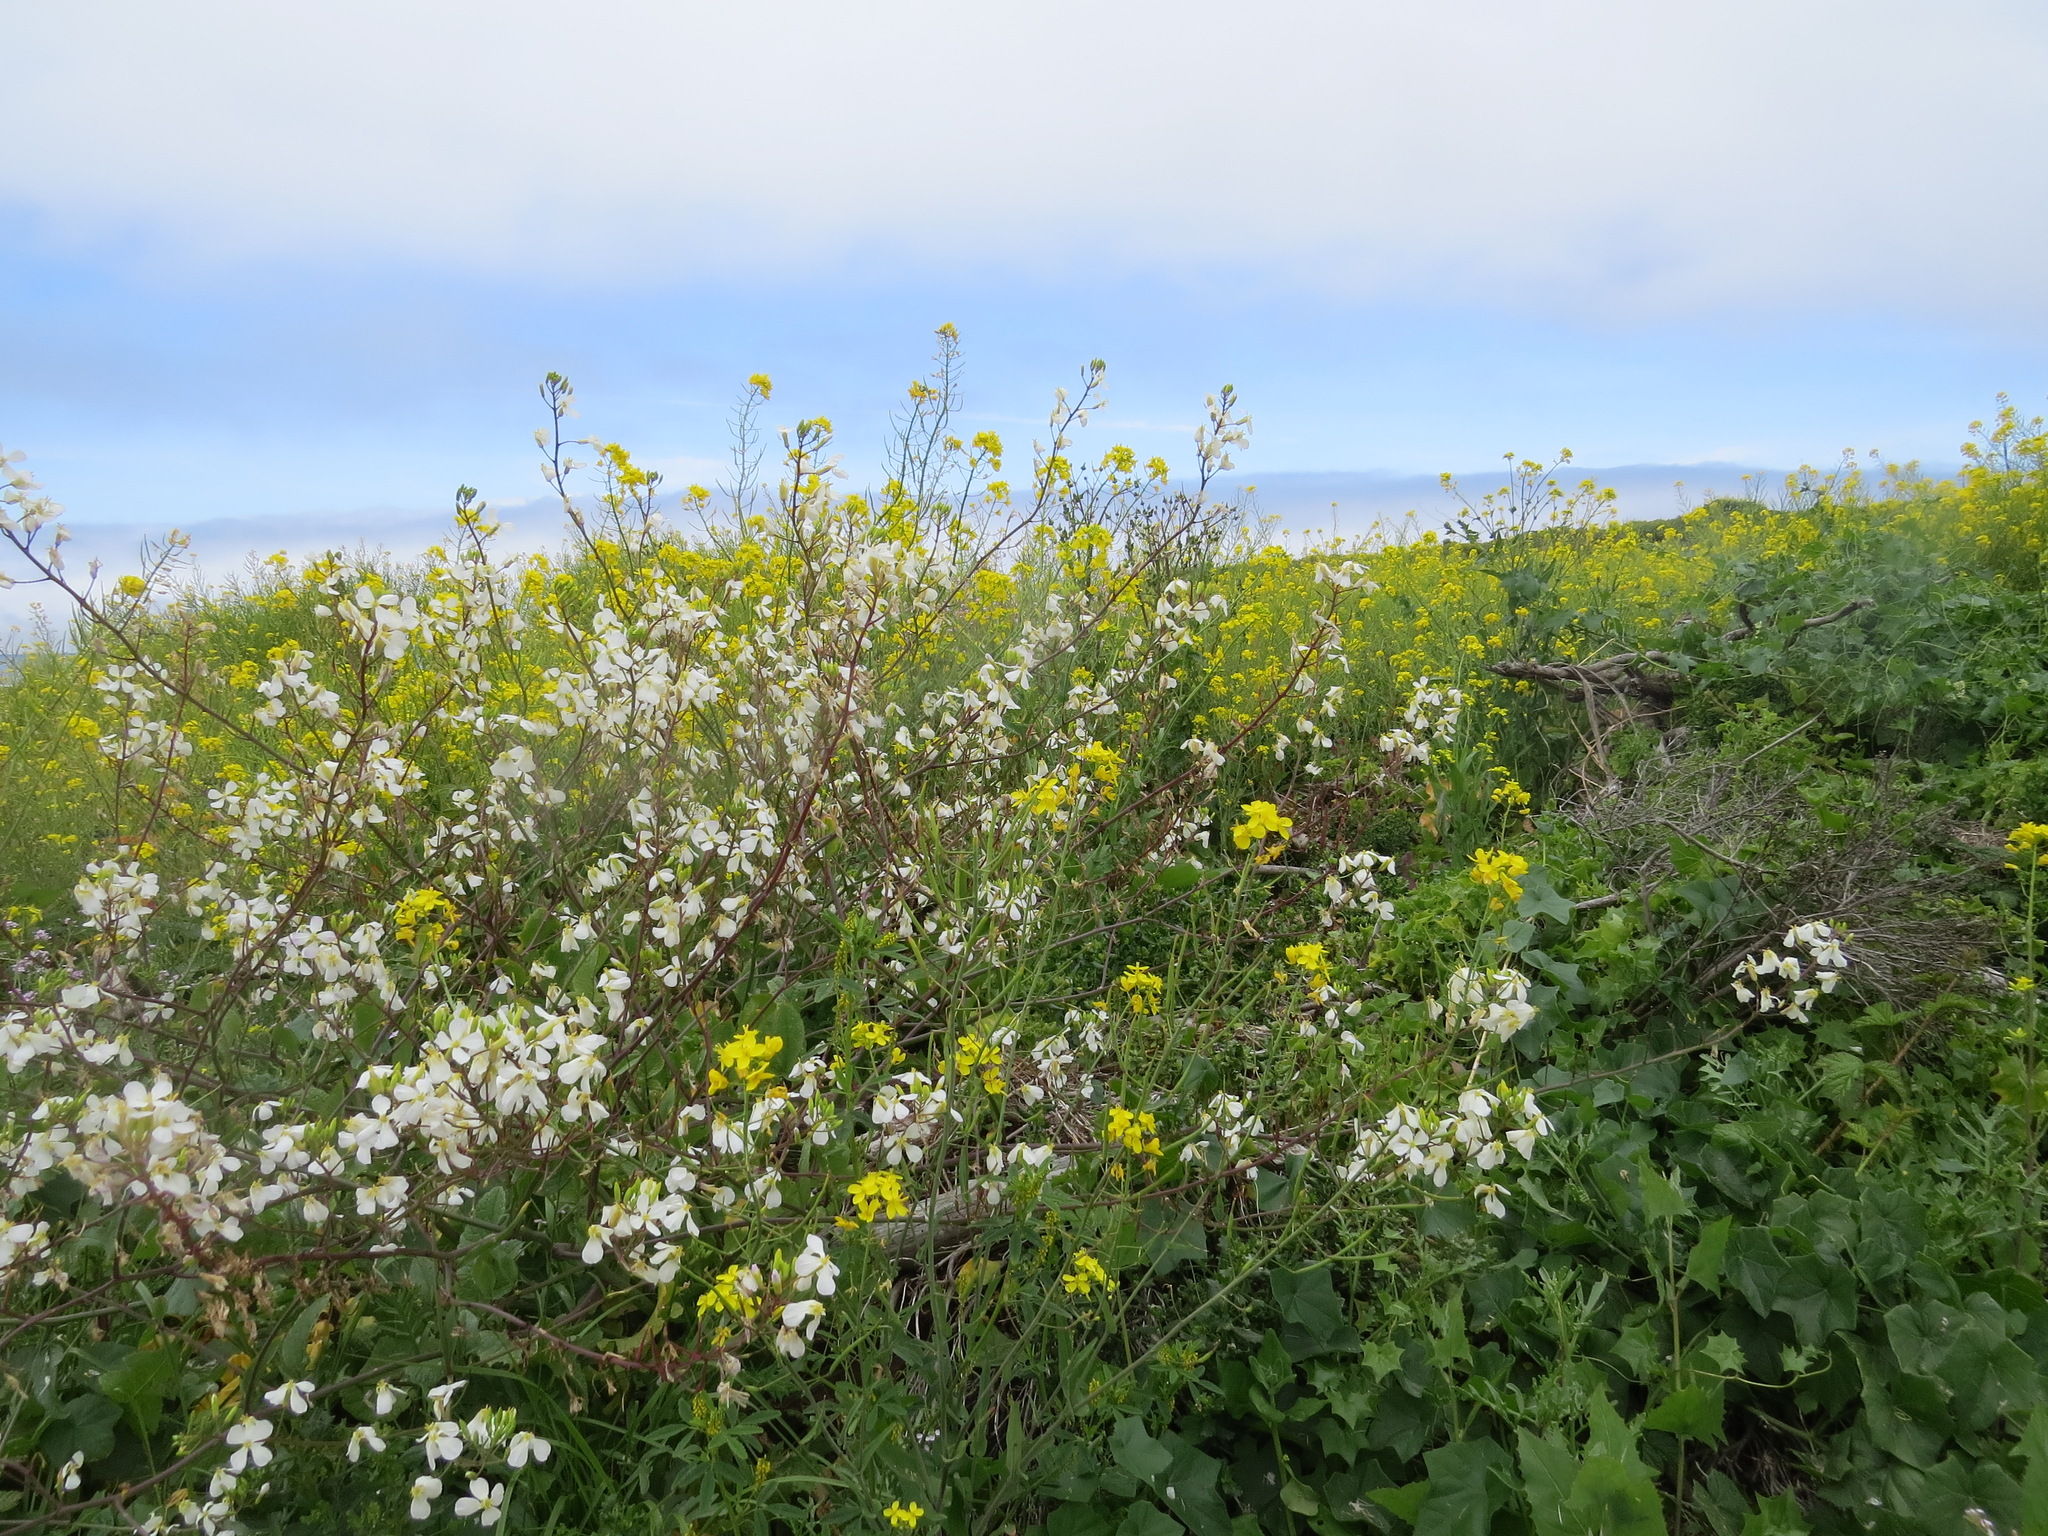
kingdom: Plantae
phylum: Tracheophyta
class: Magnoliopsida
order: Brassicales
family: Brassicaceae
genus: Raphanus
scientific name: Raphanus sativus
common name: Cultivated radish
